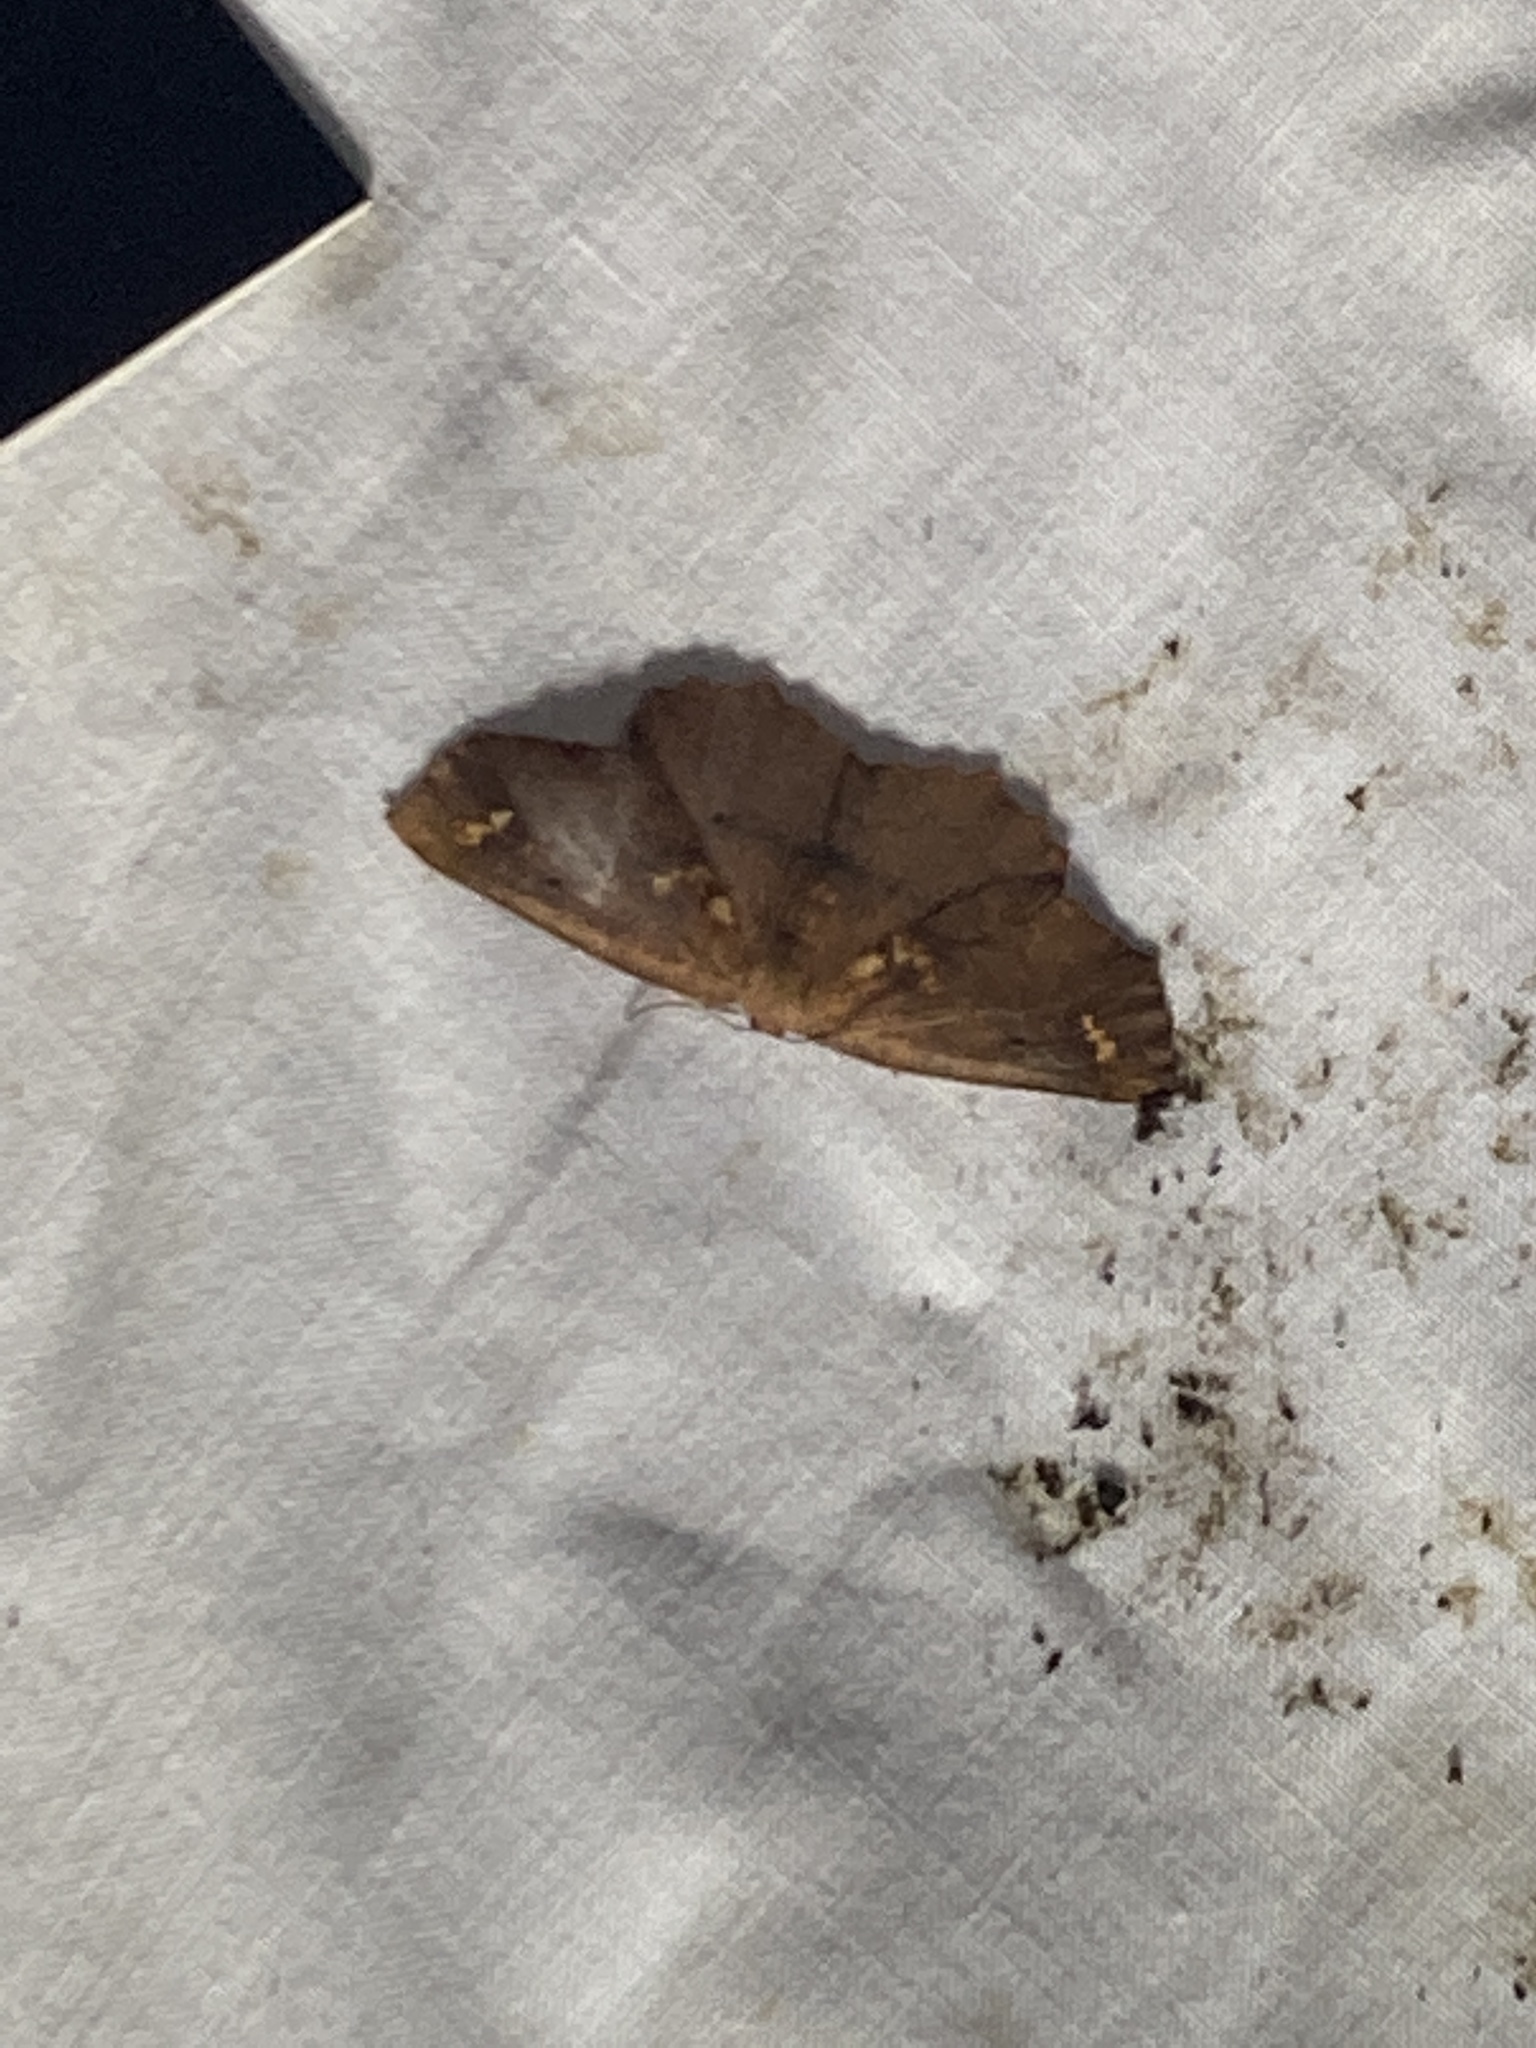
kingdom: Animalia
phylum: Arthropoda
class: Insecta
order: Lepidoptera
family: Geometridae
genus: Xyridacma
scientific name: Xyridacma ustaria
